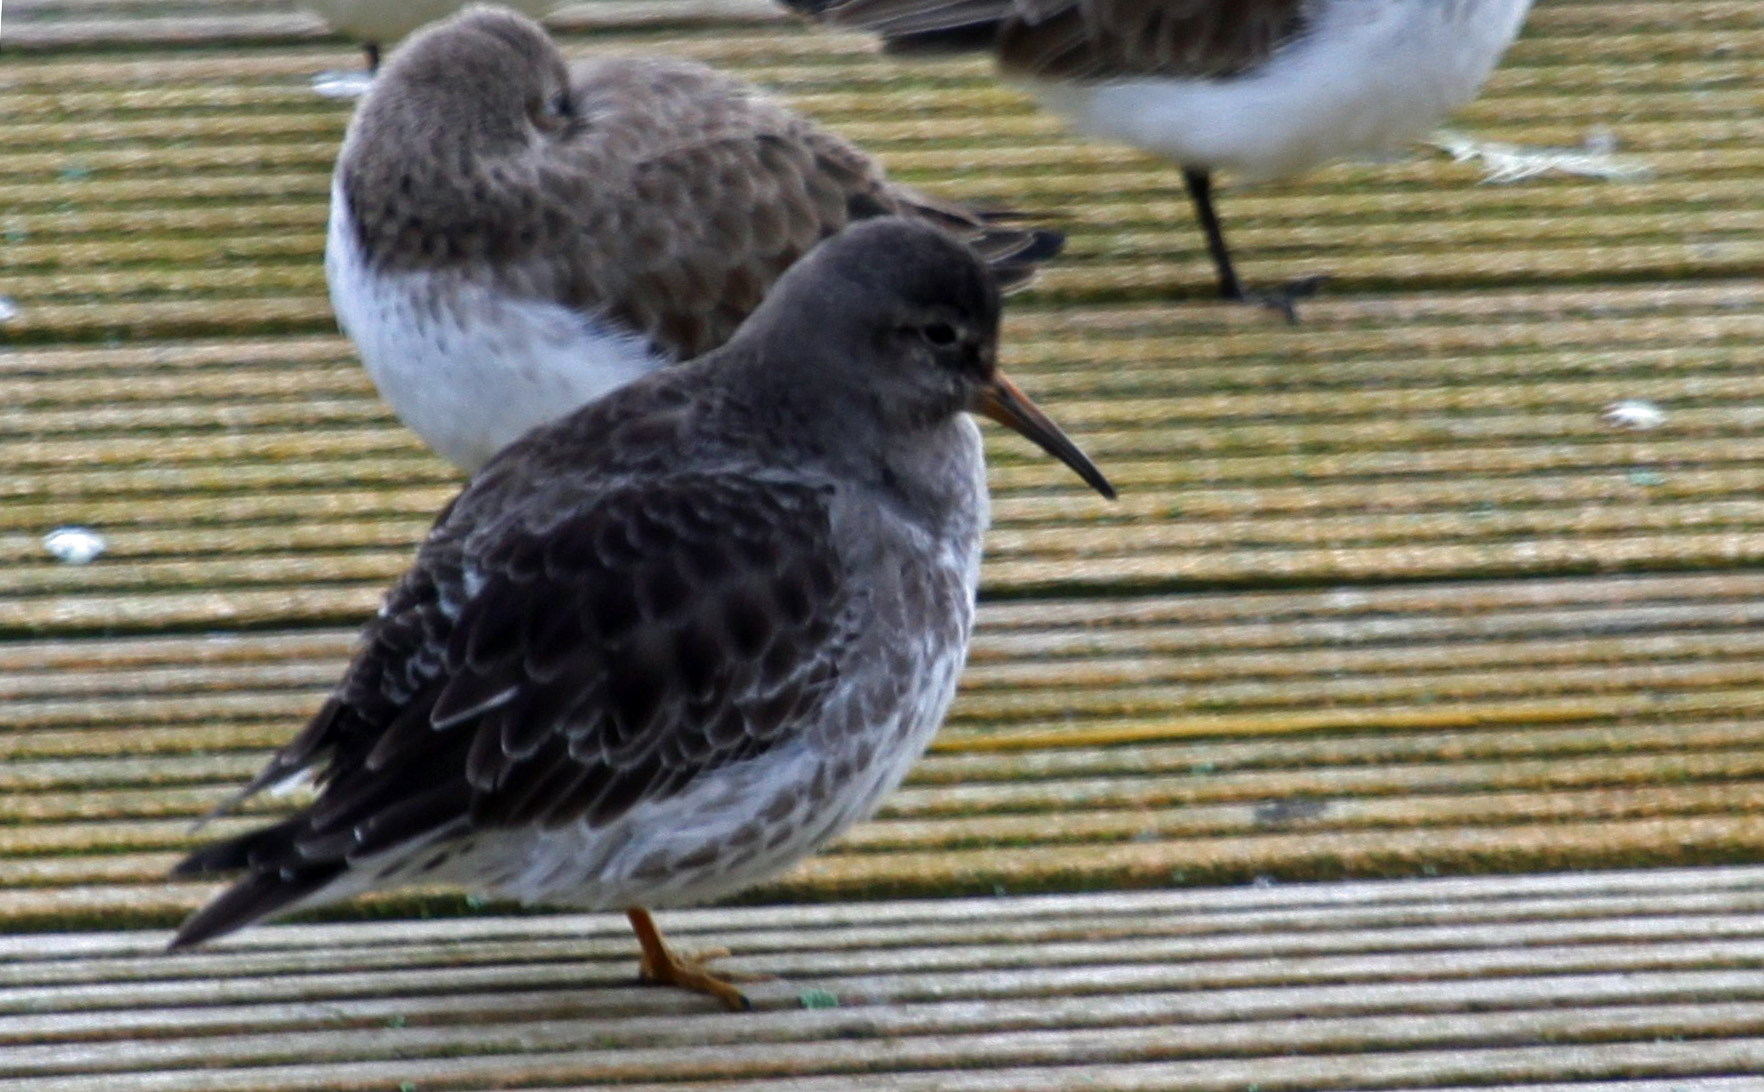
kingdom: Animalia
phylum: Chordata
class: Aves
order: Charadriiformes
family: Scolopacidae
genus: Calidris
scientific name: Calidris maritima
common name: Purple sandpiper
